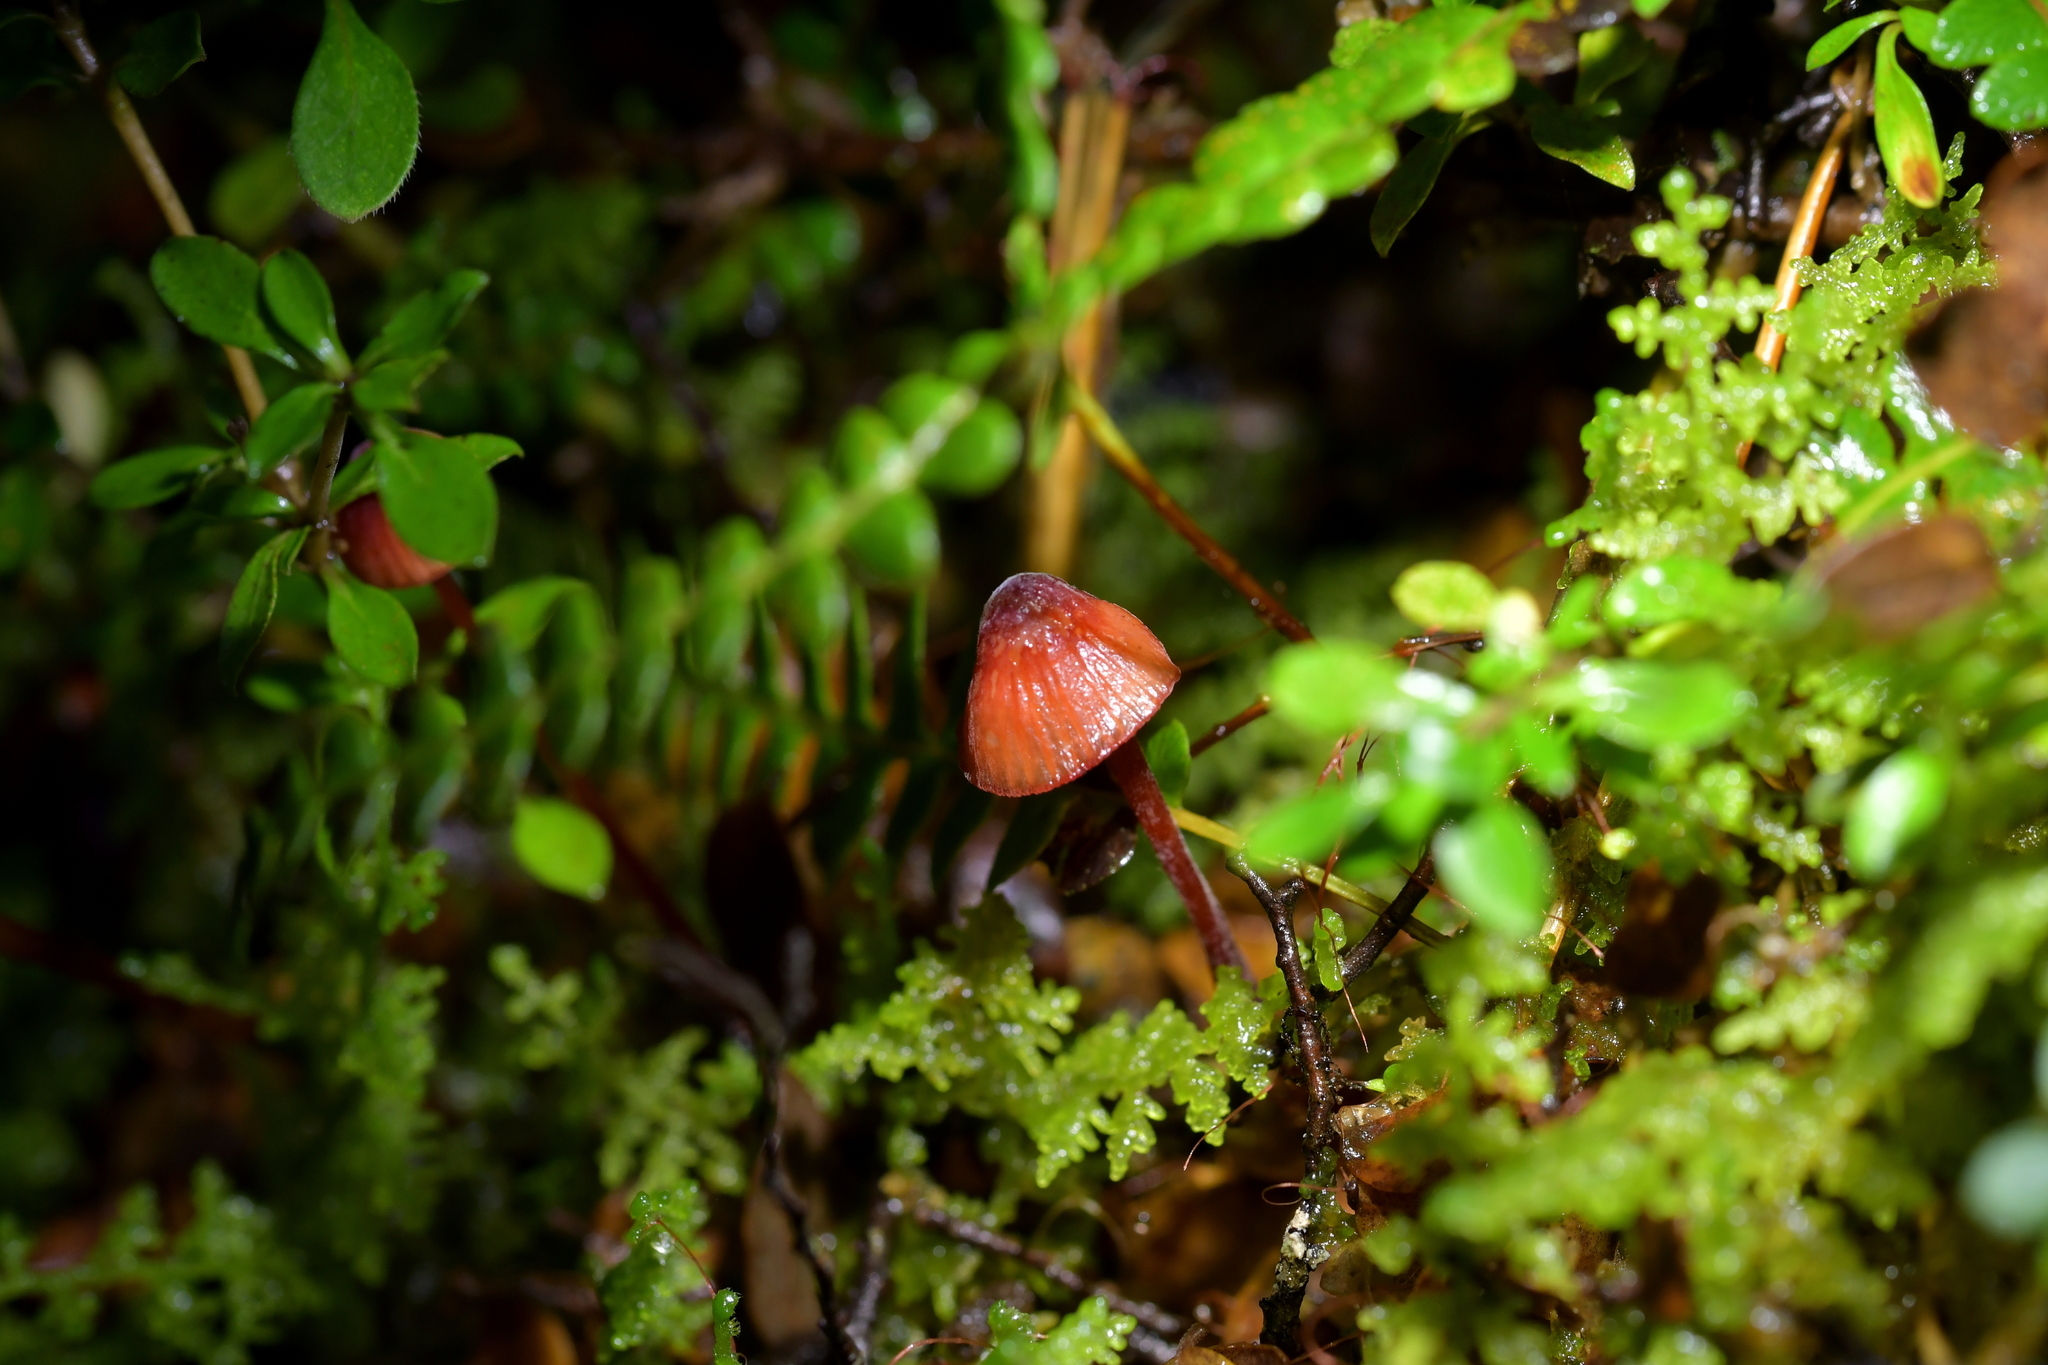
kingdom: Fungi
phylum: Basidiomycota
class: Agaricomycetes
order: Agaricales
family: Mycenaceae
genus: Mycena
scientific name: Mycena ura
